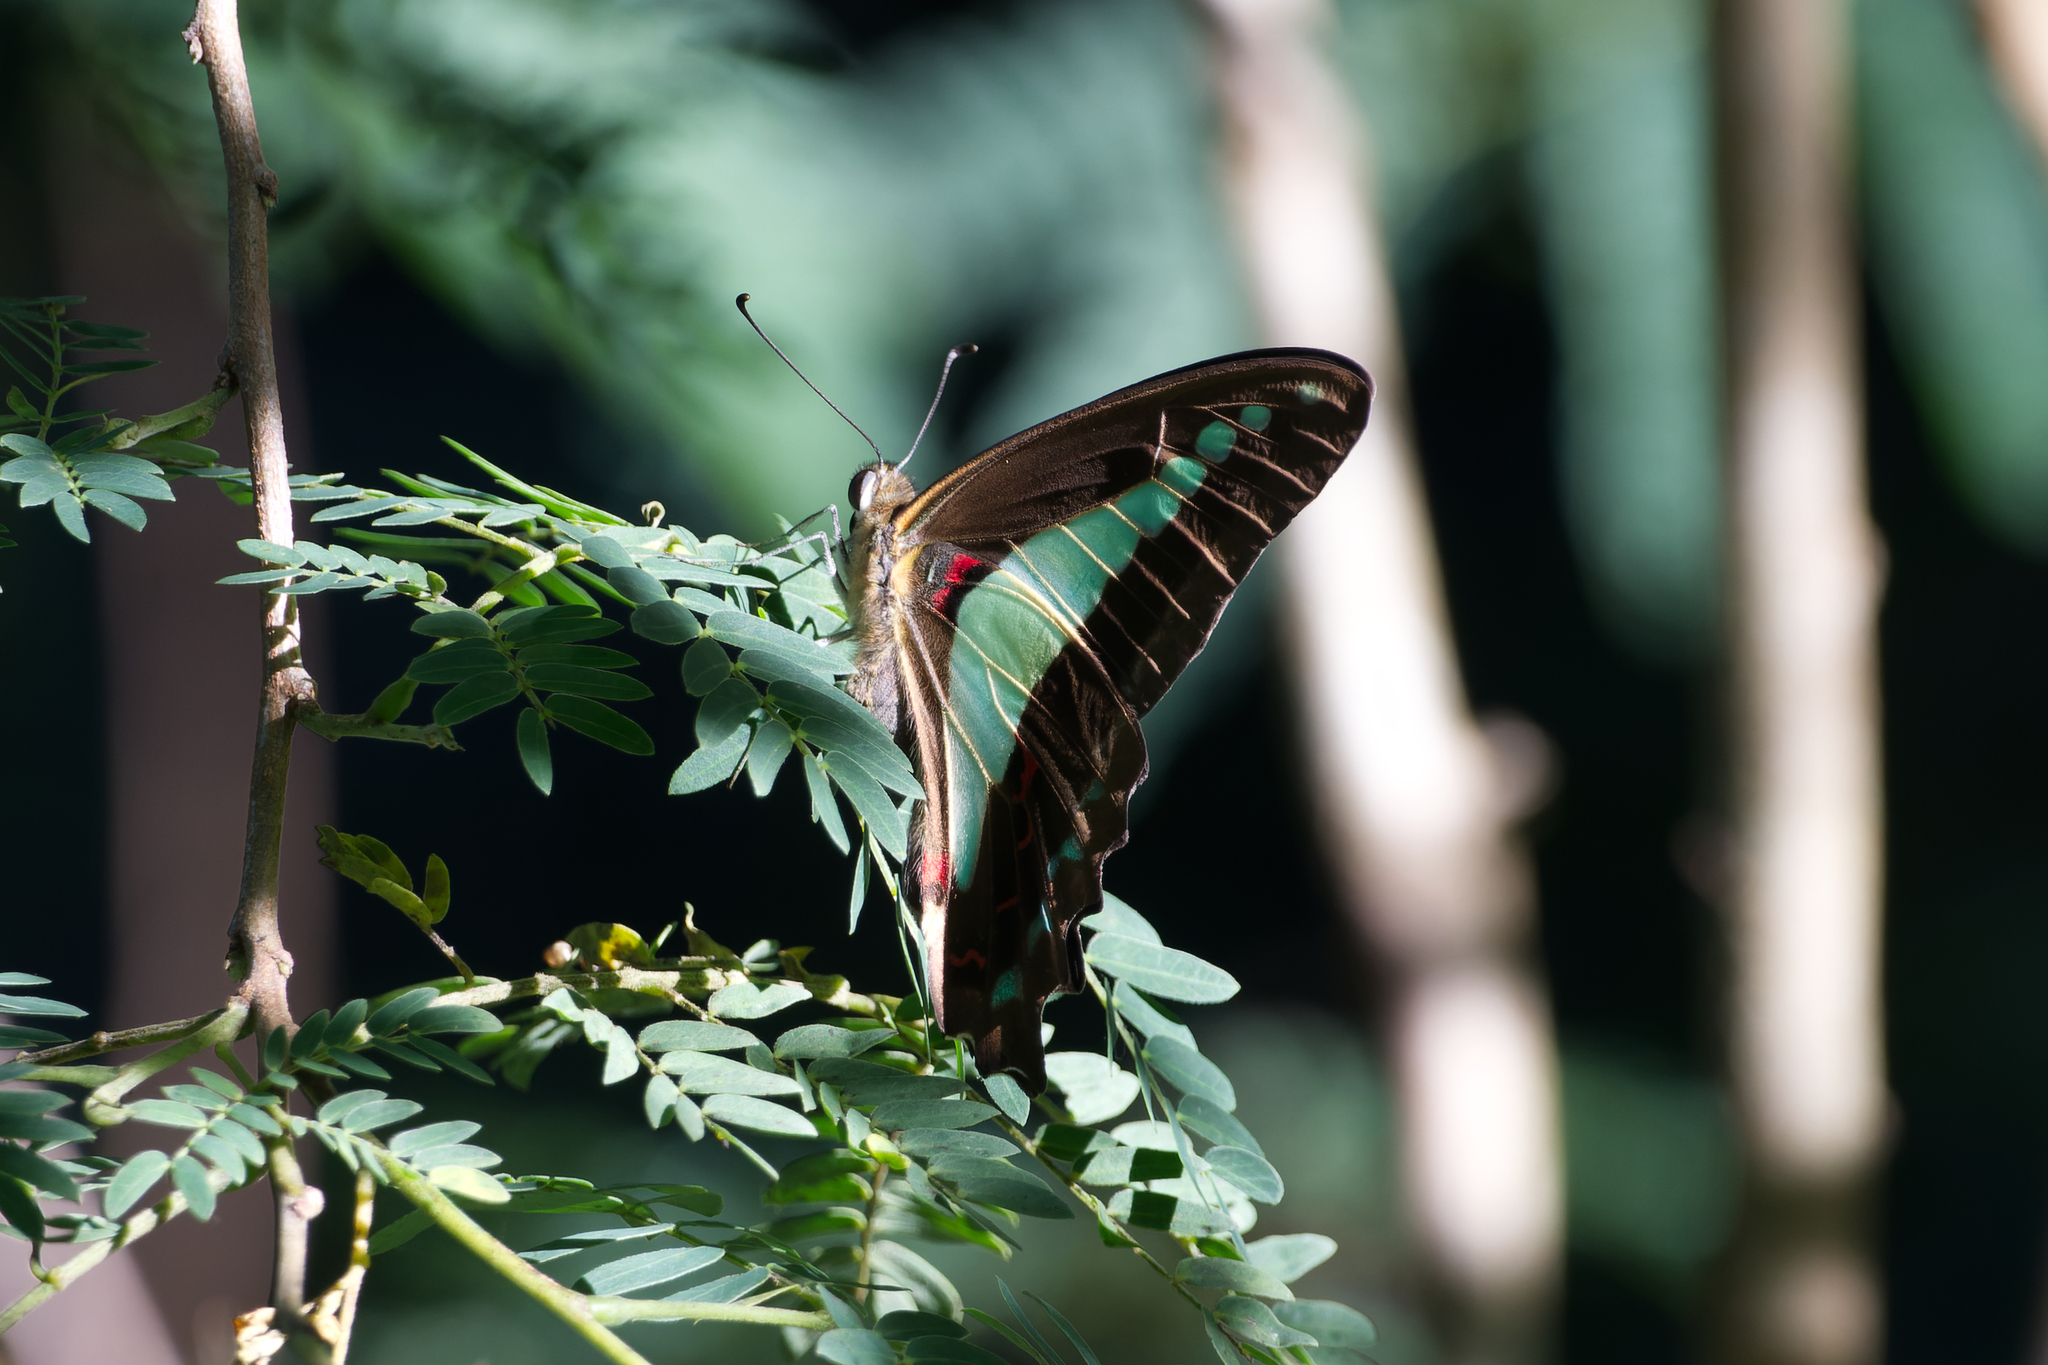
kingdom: Animalia
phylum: Arthropoda
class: Insecta
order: Lepidoptera
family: Papilionidae
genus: Graphium
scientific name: Graphium
